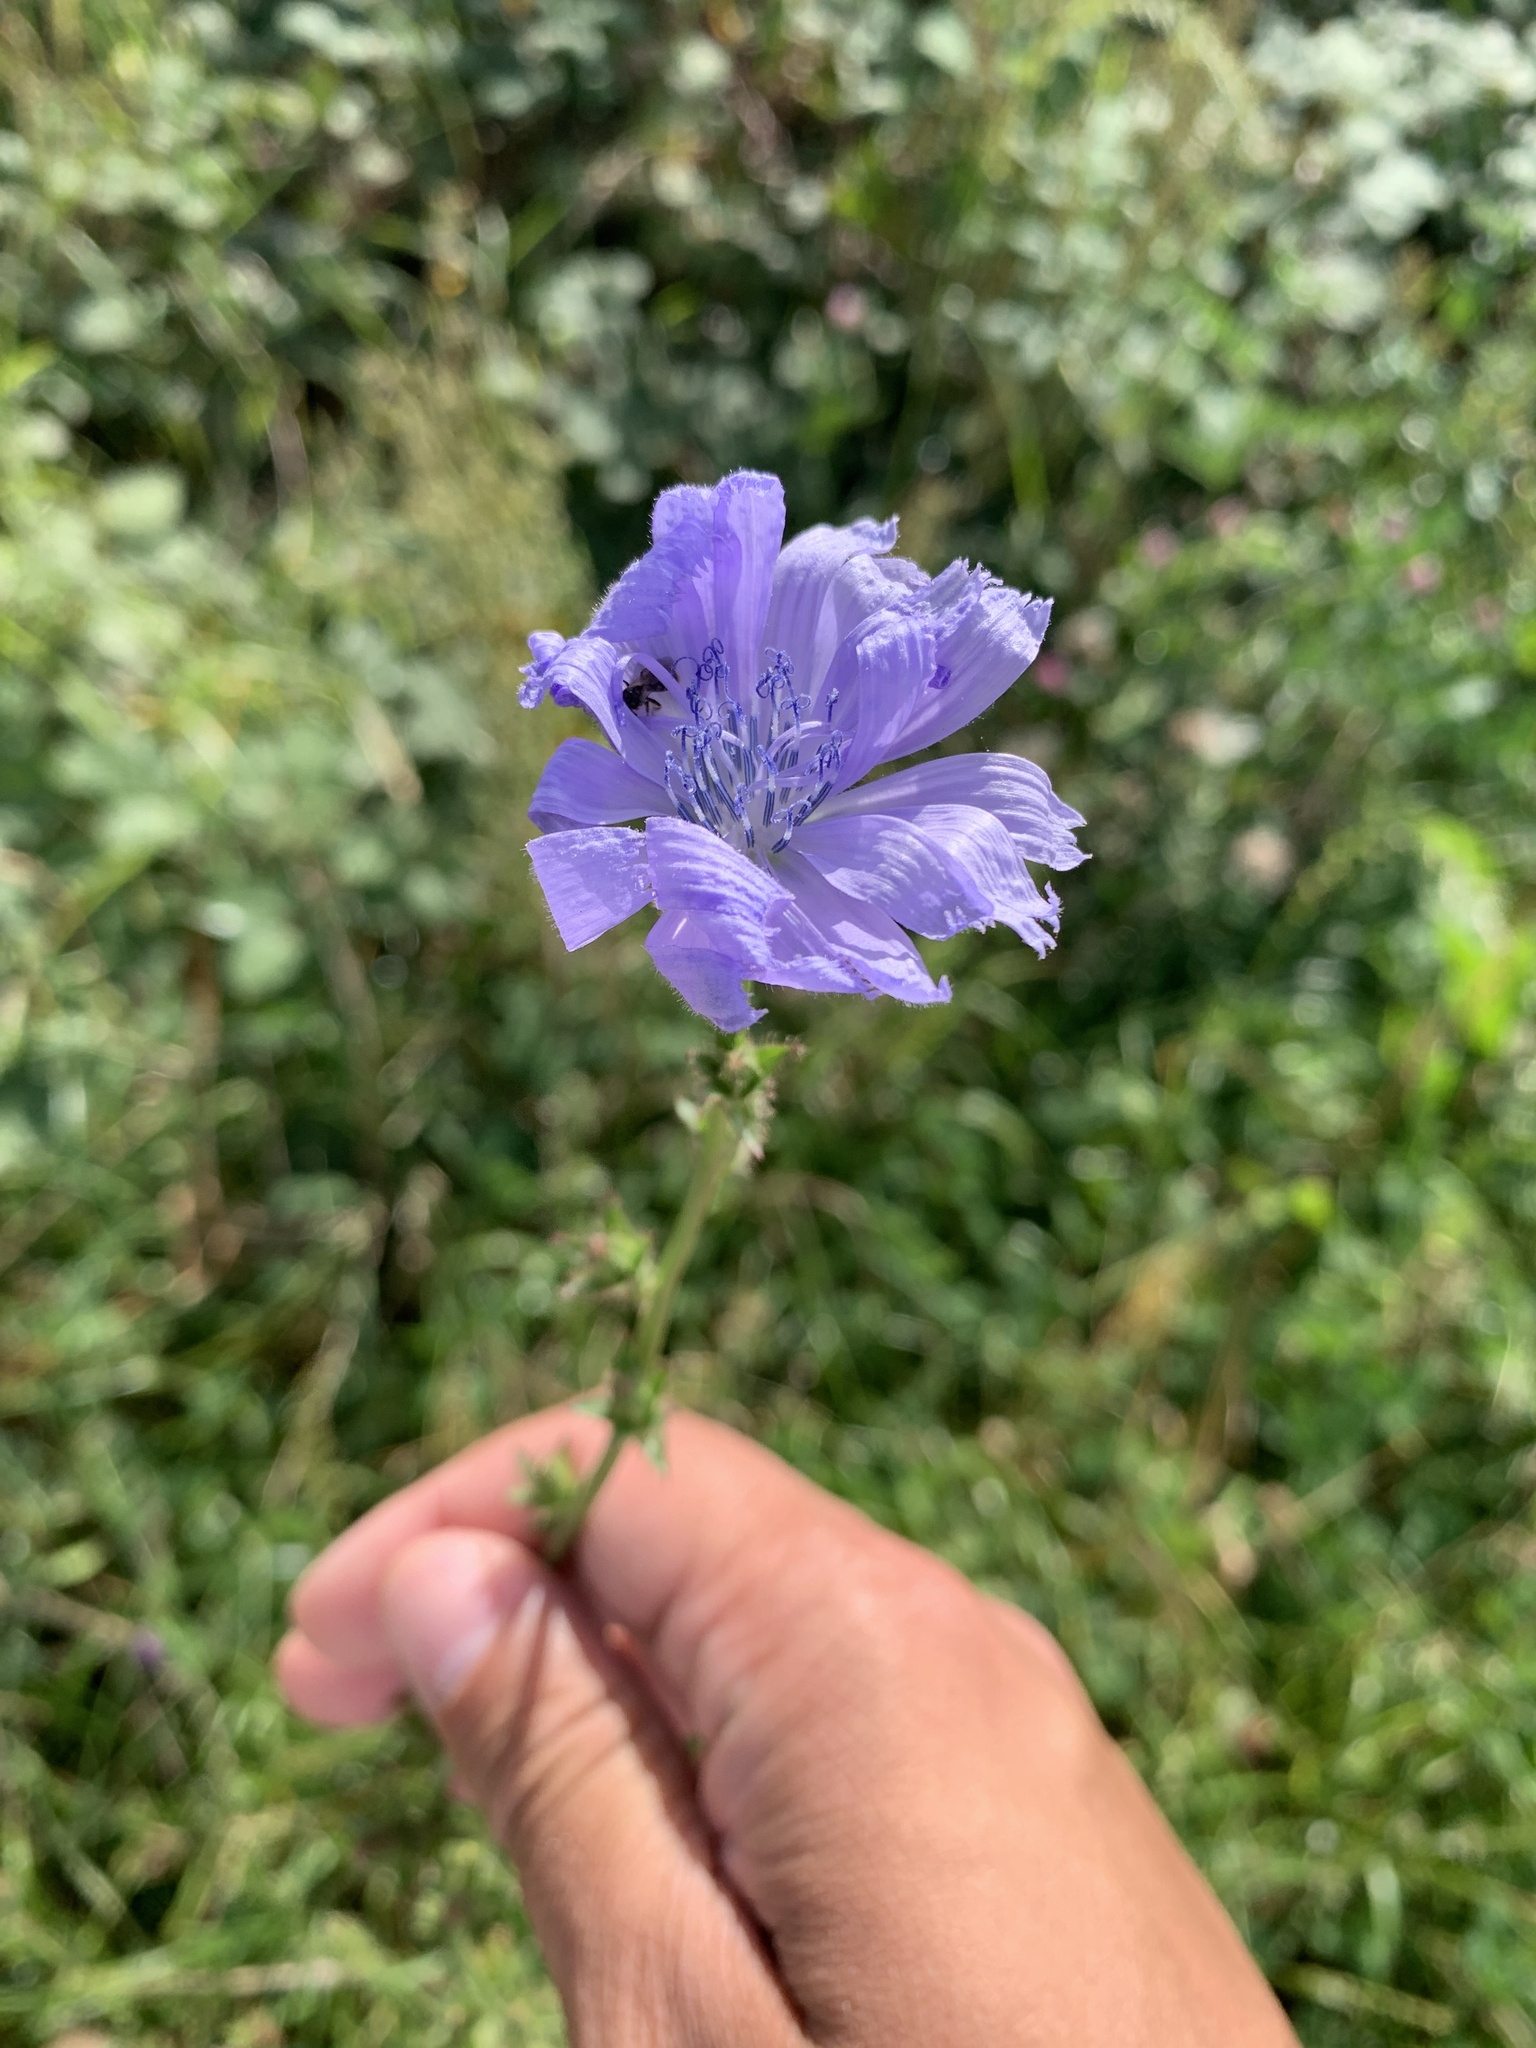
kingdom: Plantae
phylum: Tracheophyta
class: Magnoliopsida
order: Asterales
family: Asteraceae
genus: Cichorium
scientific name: Cichorium intybus
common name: Chicory
